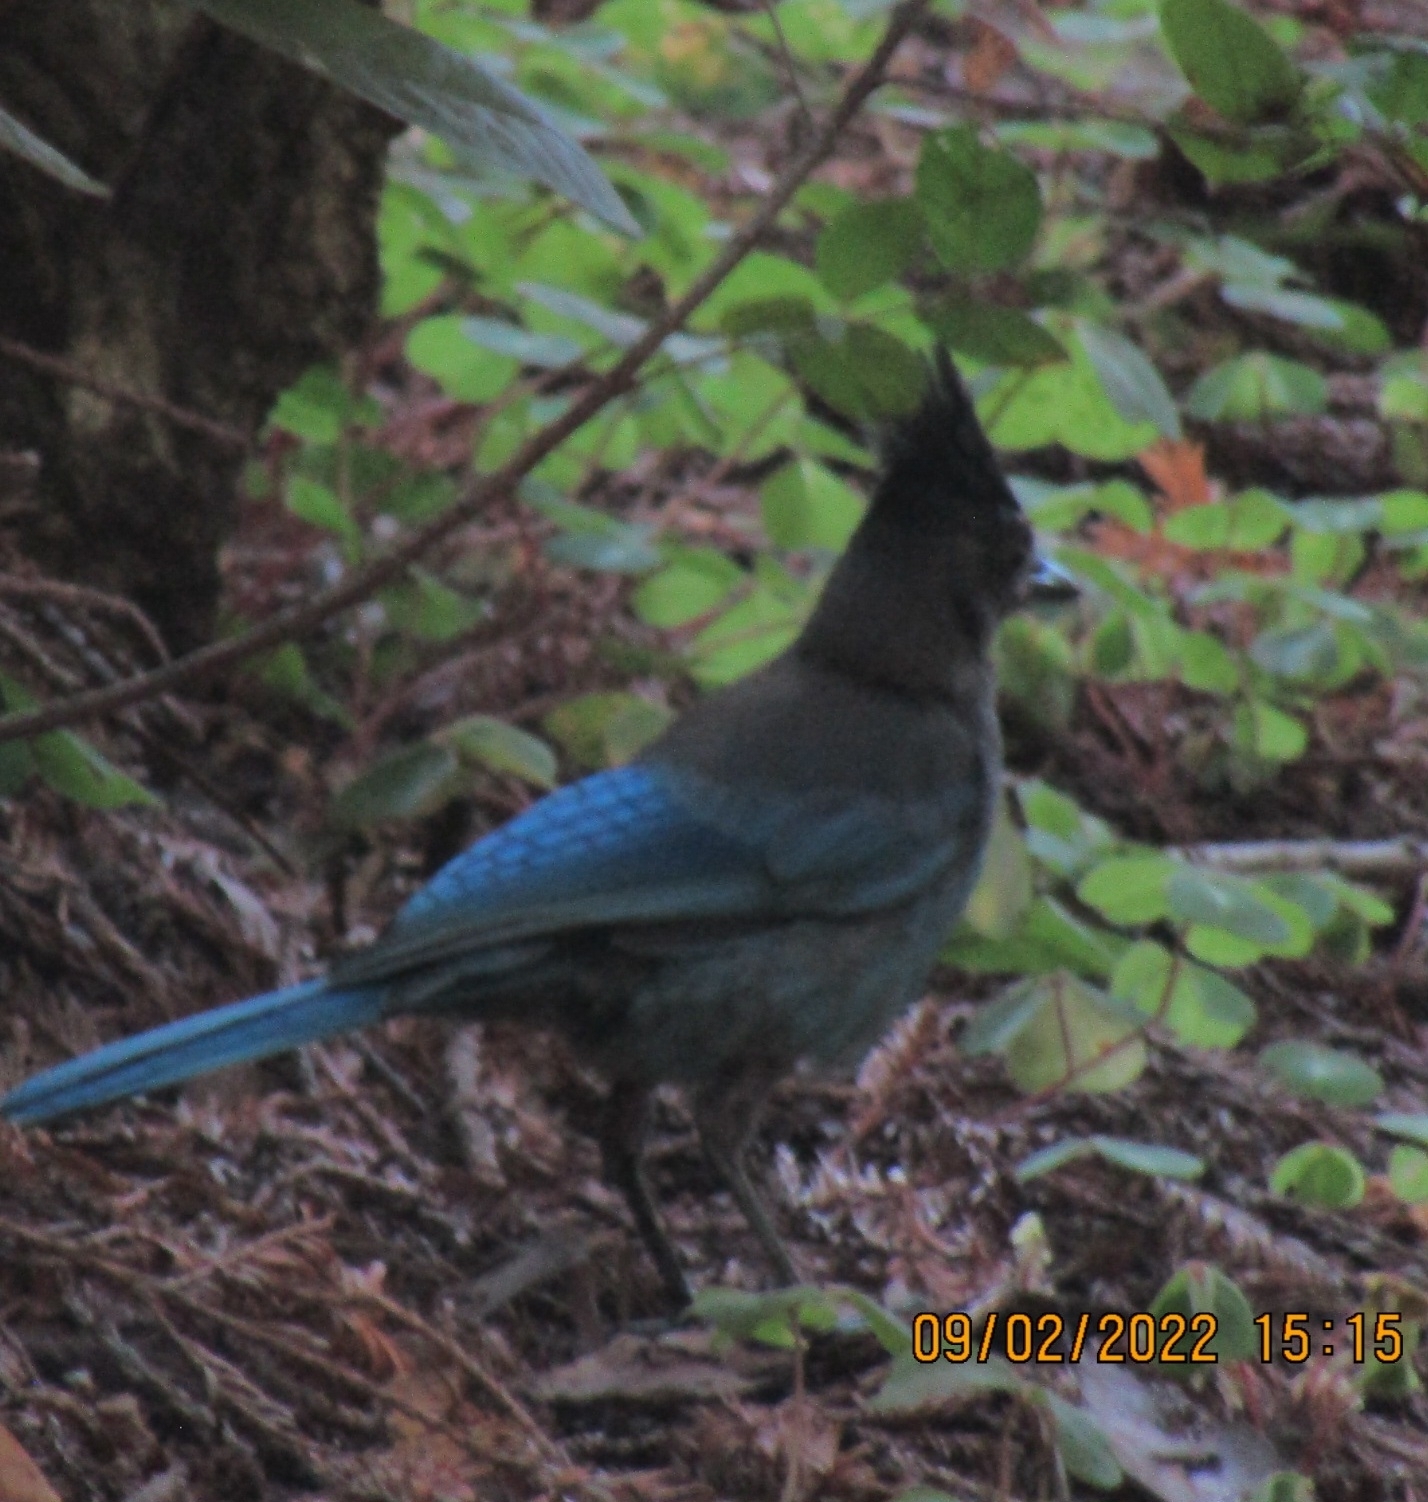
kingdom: Animalia
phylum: Chordata
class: Aves
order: Passeriformes
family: Corvidae
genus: Cyanocitta
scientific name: Cyanocitta stelleri
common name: Steller's jay
